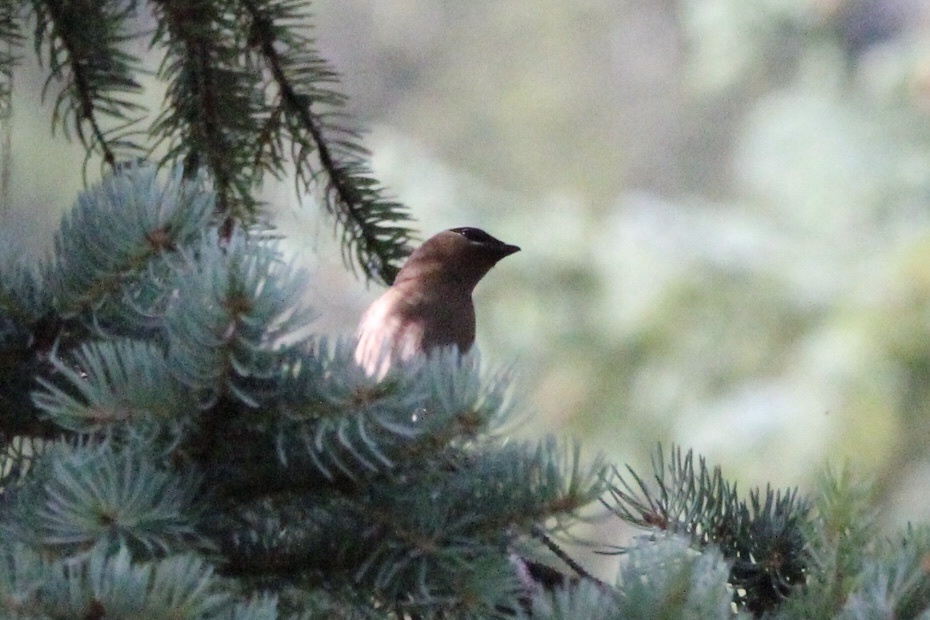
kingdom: Animalia
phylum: Chordata
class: Aves
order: Passeriformes
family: Bombycillidae
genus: Bombycilla
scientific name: Bombycilla cedrorum
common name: Cedar waxwing
